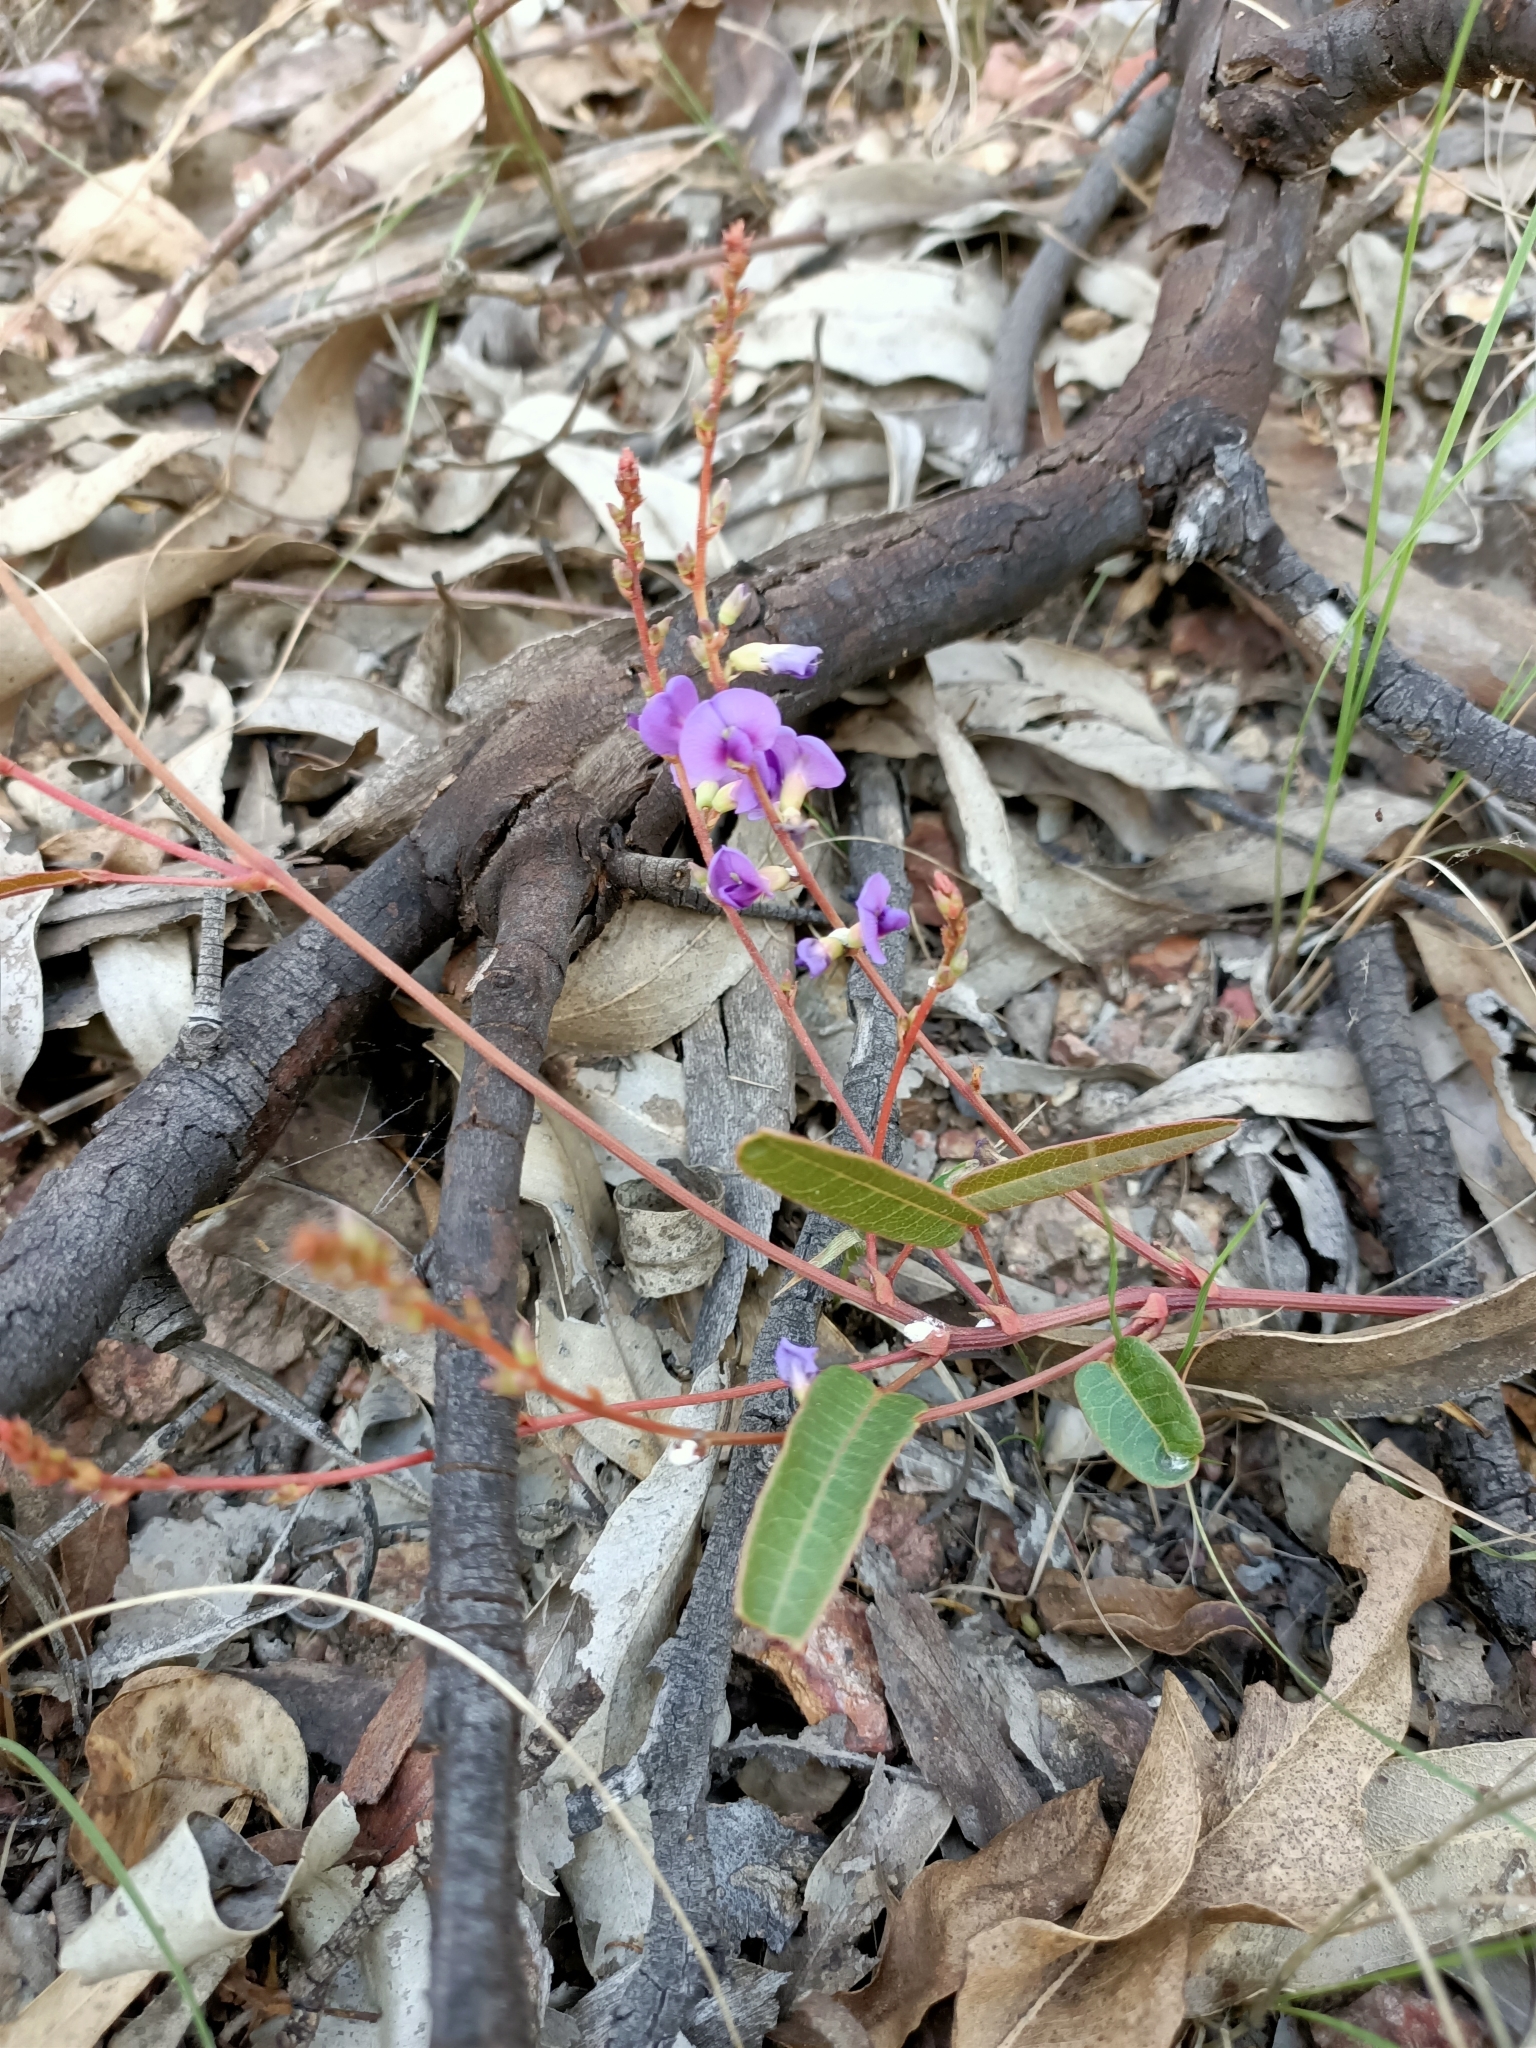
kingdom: Plantae
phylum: Tracheophyta
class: Magnoliopsida
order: Fabales
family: Fabaceae
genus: Hardenbergia
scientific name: Hardenbergia violacea
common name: Coral-pea
